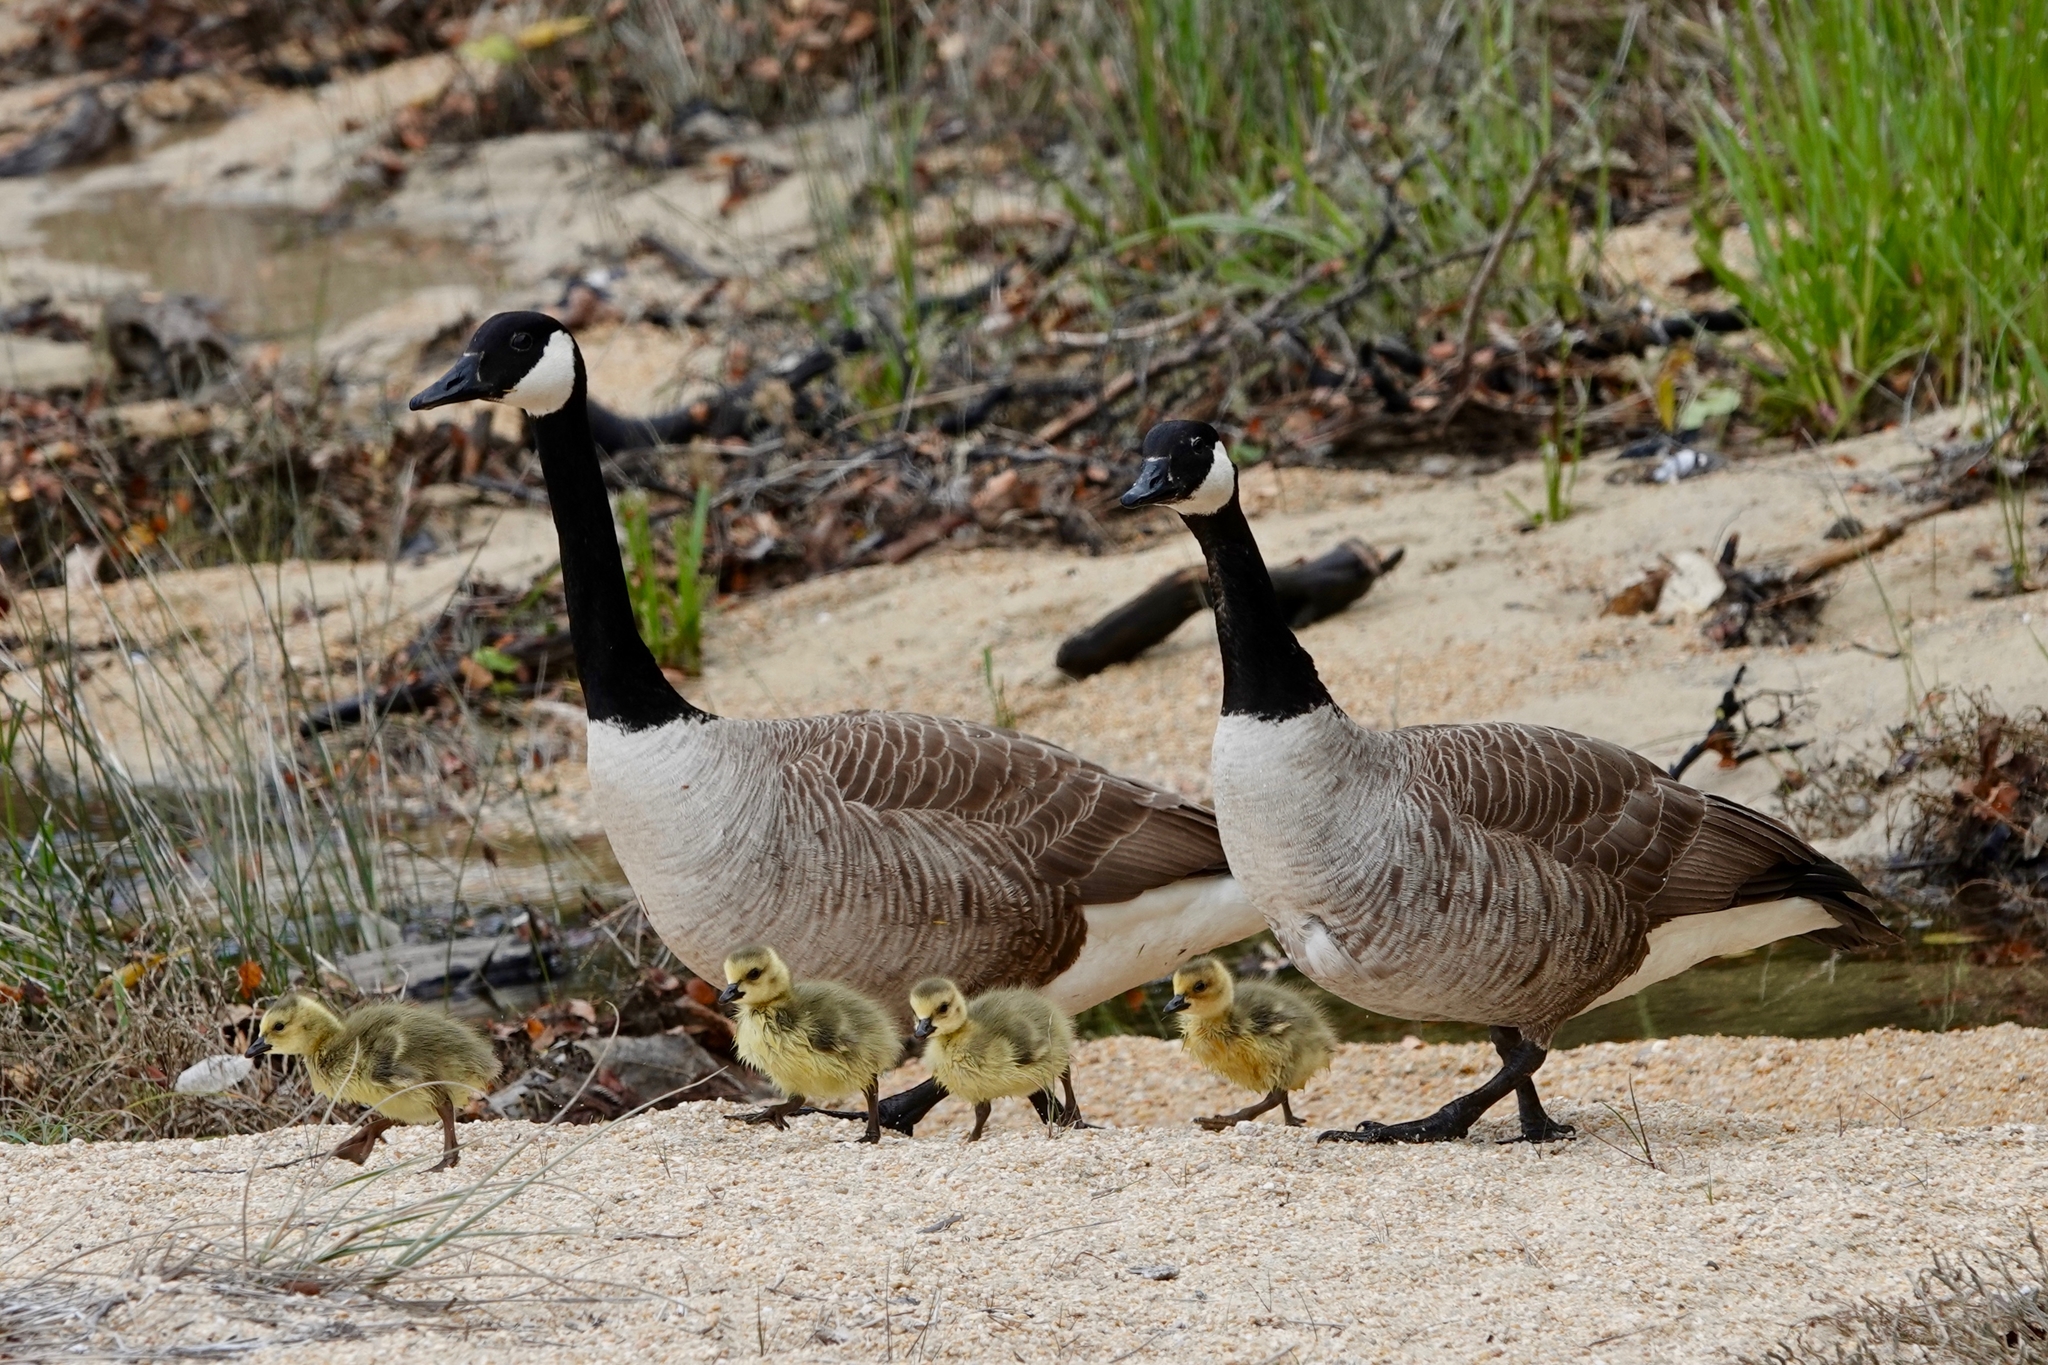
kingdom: Animalia
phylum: Chordata
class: Aves
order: Anseriformes
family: Anatidae
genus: Branta
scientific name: Branta canadensis
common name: Canada goose
